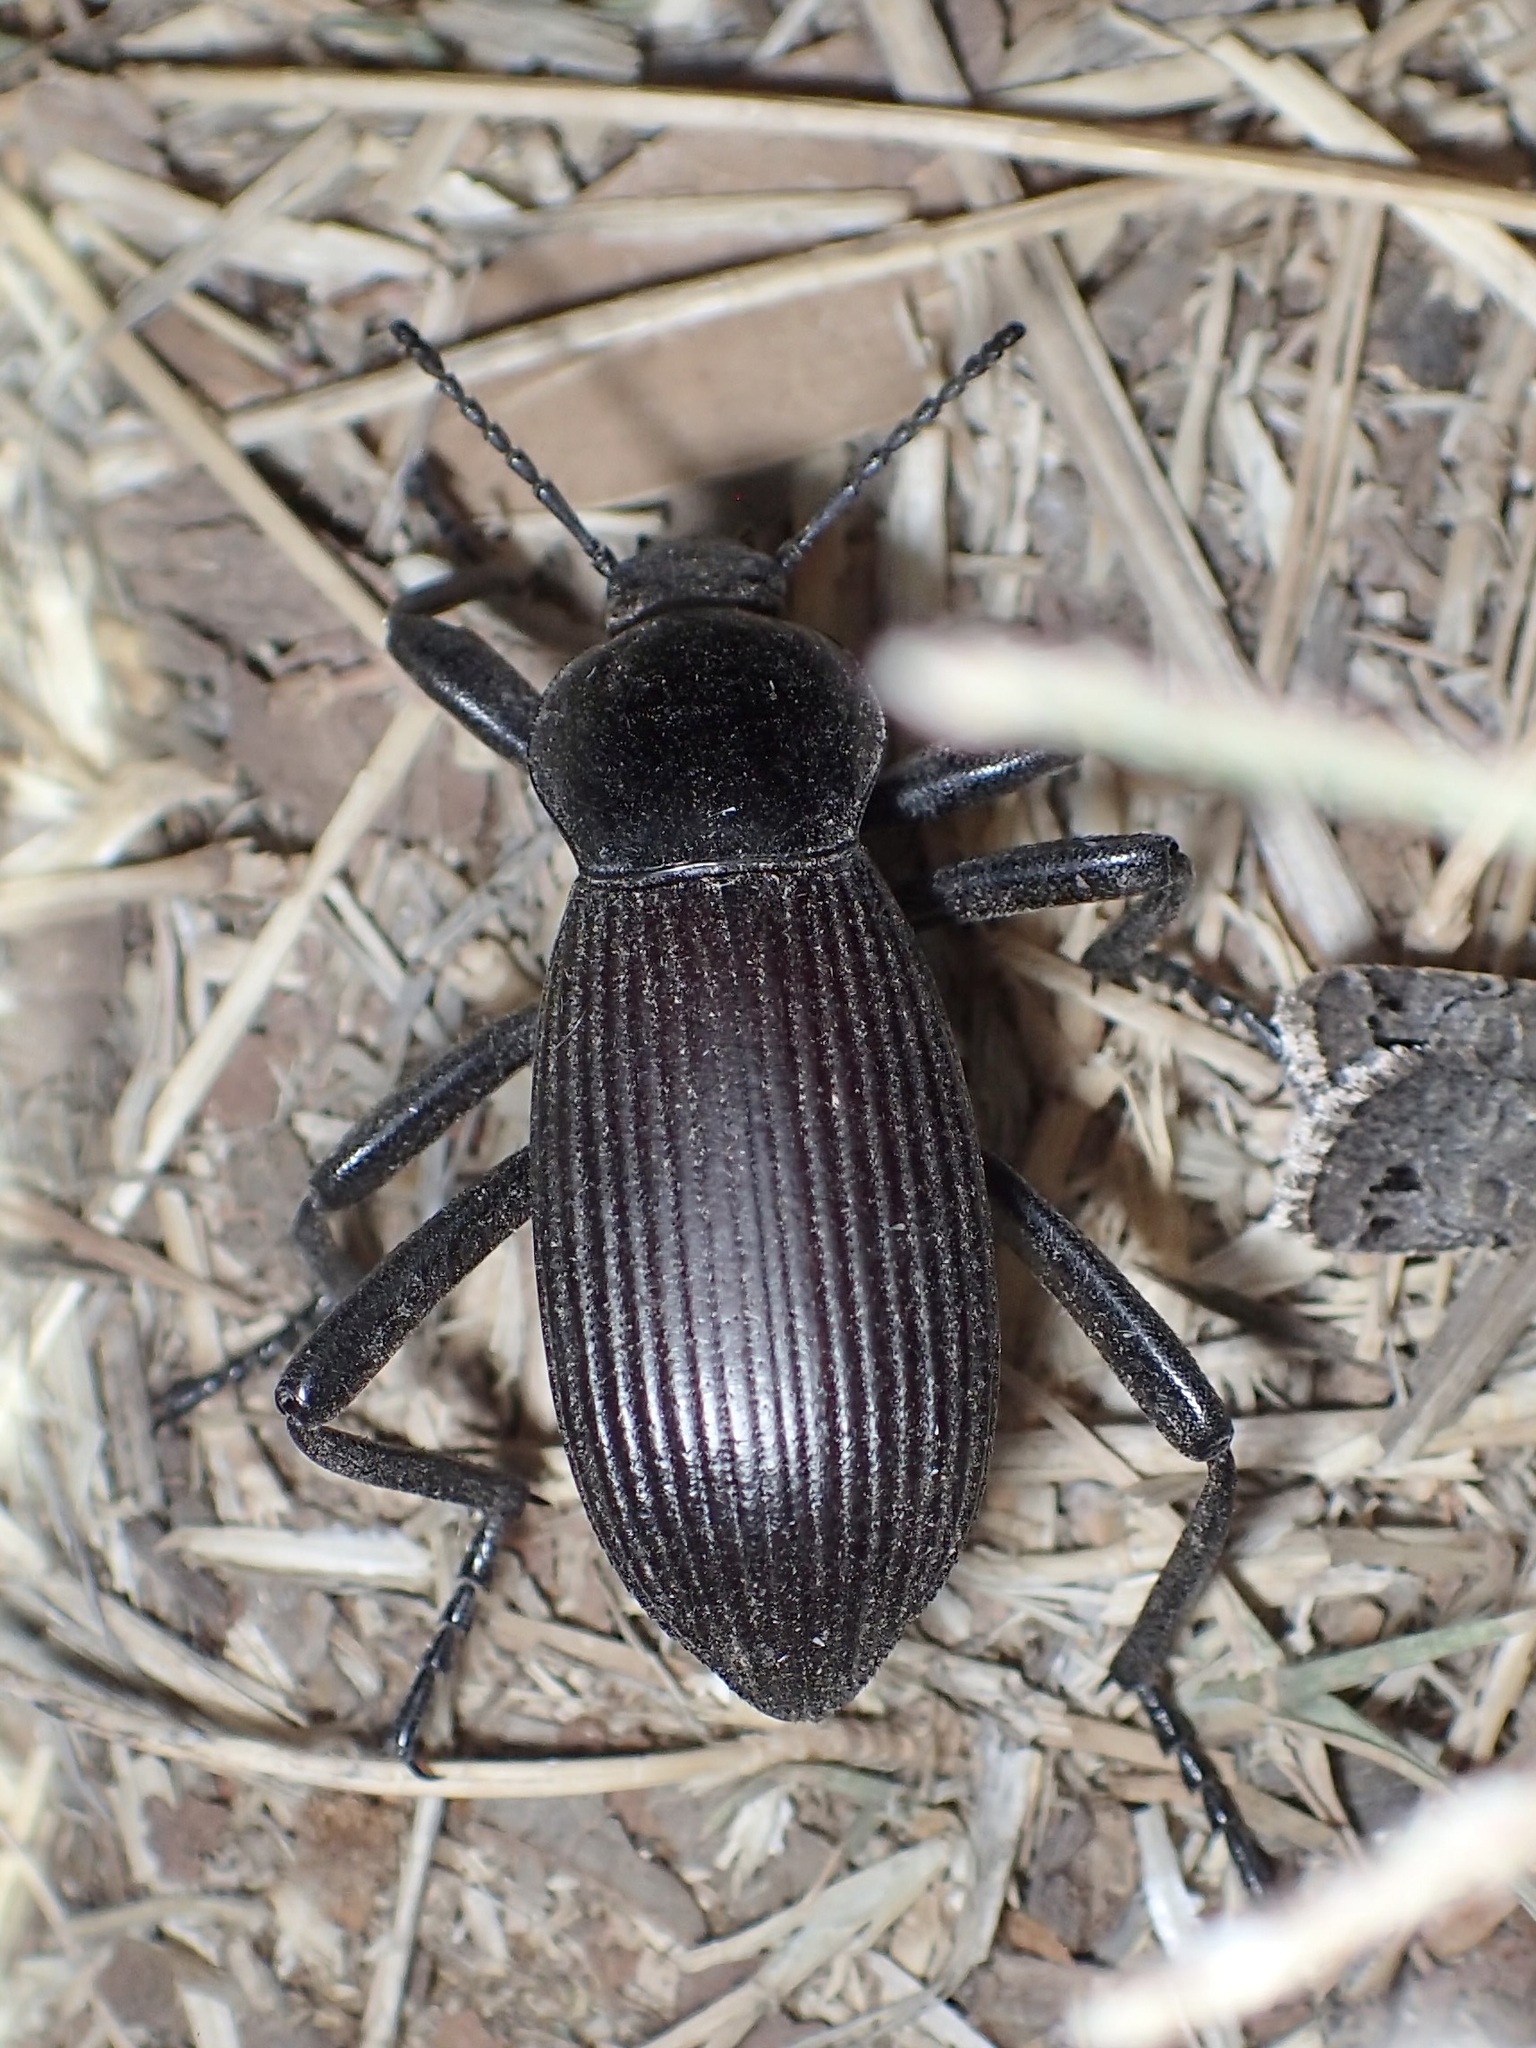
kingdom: Animalia
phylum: Arthropoda
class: Insecta
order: Coleoptera
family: Tenebrionidae
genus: Eleodes
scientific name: Eleodes obscura
